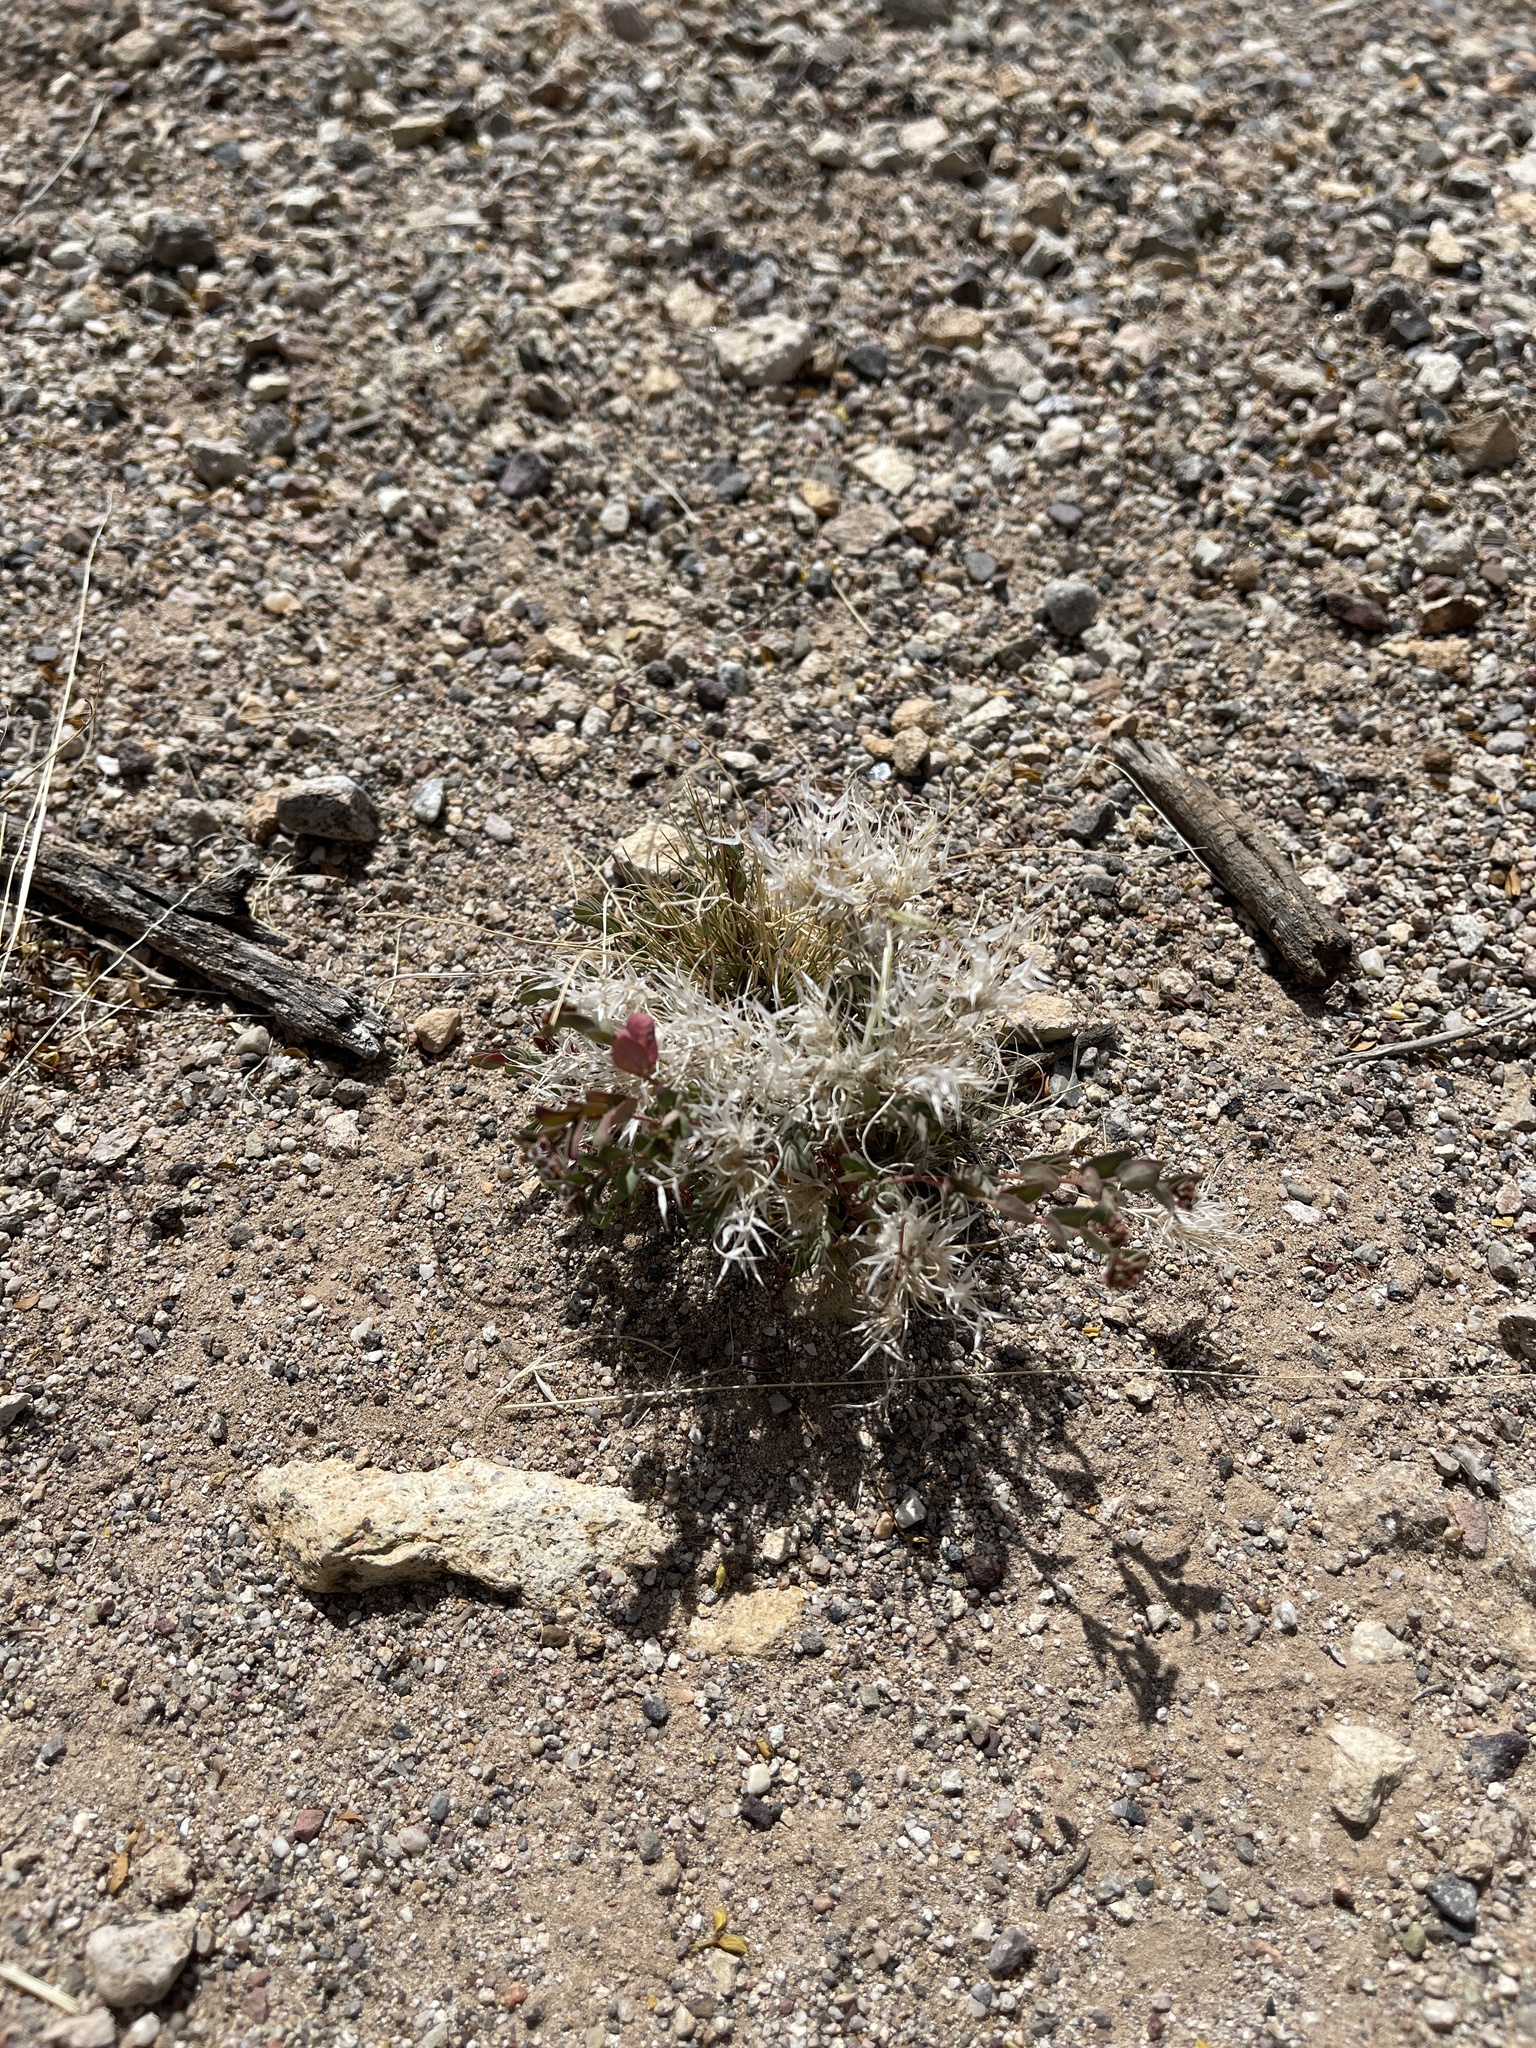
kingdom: Plantae
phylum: Tracheophyta
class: Liliopsida
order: Poales
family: Poaceae
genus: Dasyochloa
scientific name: Dasyochloa pulchella
